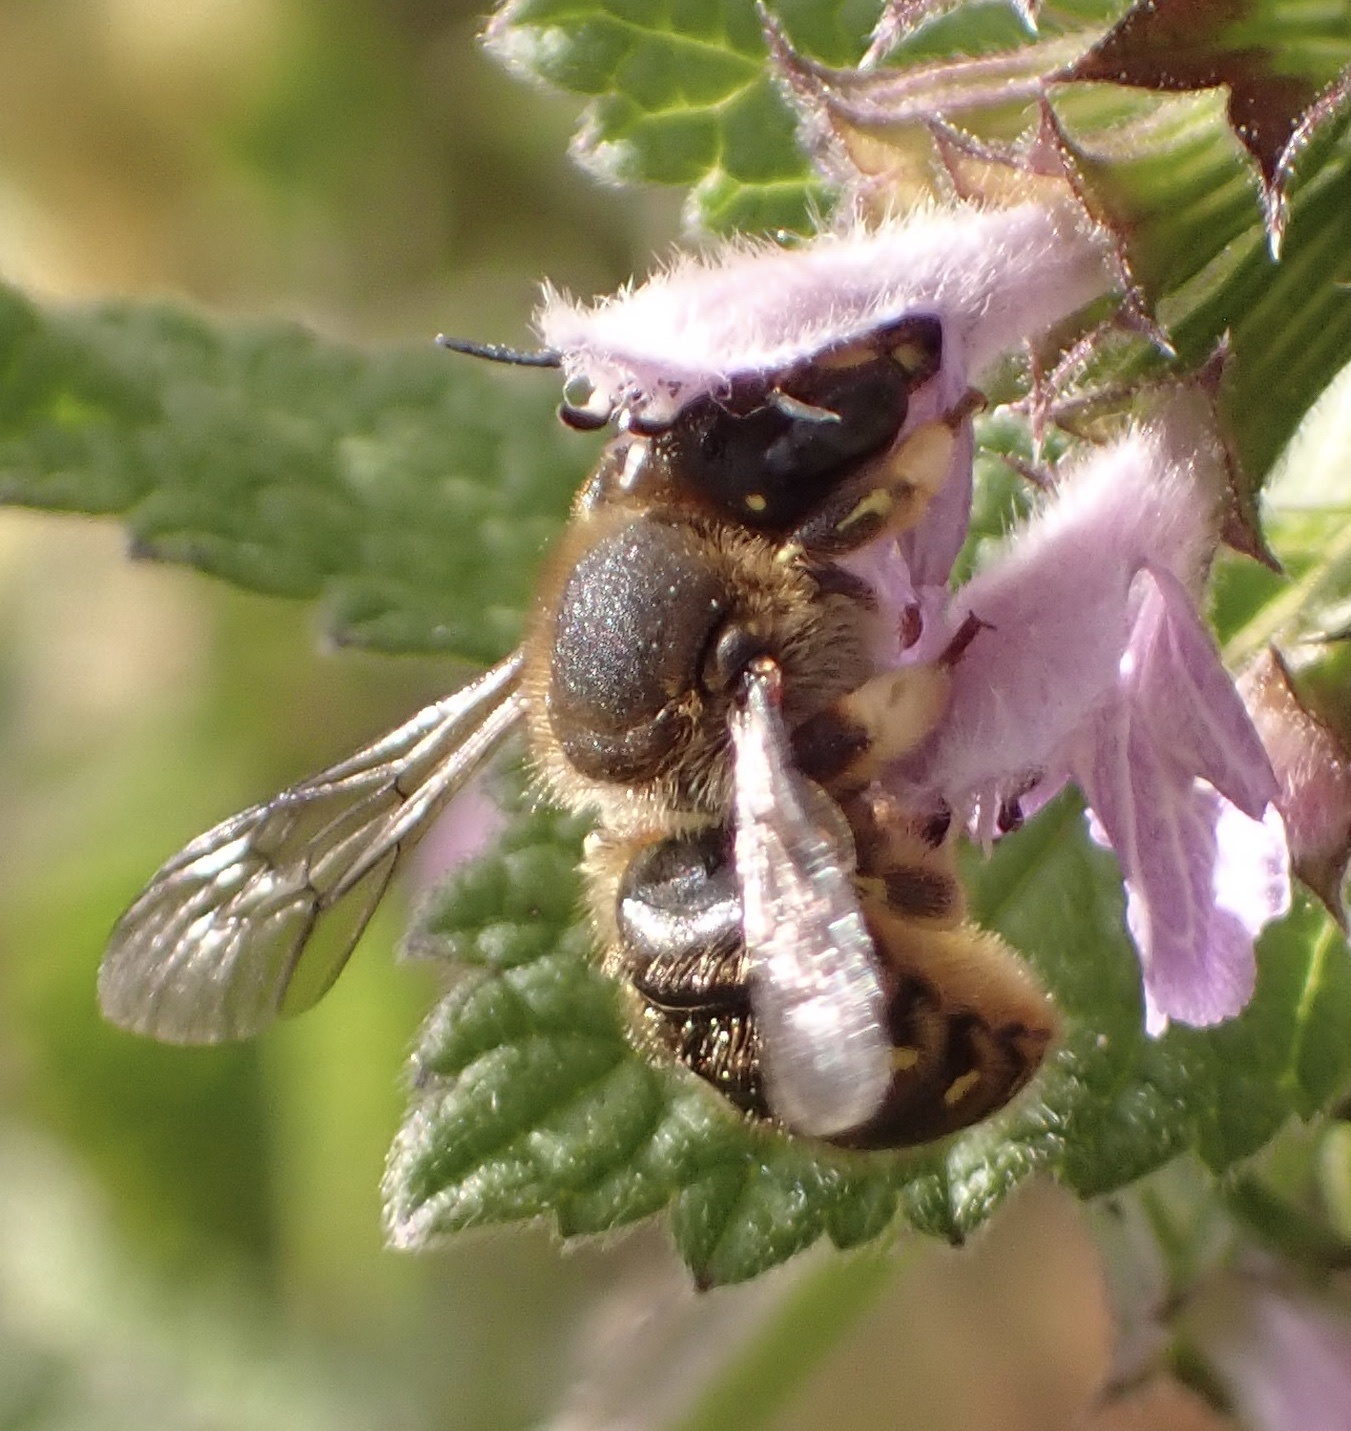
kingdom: Animalia
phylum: Arthropoda
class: Insecta
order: Hymenoptera
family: Megachilidae
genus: Anthidium
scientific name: Anthidium manicatum
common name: Wool carder bee
